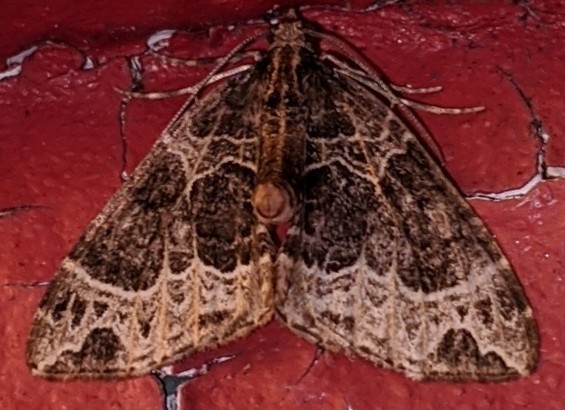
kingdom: Animalia
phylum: Arthropoda
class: Insecta
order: Lepidoptera
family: Geometridae
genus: Ecliptopera
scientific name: Ecliptopera silaceata
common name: Small phoenix
